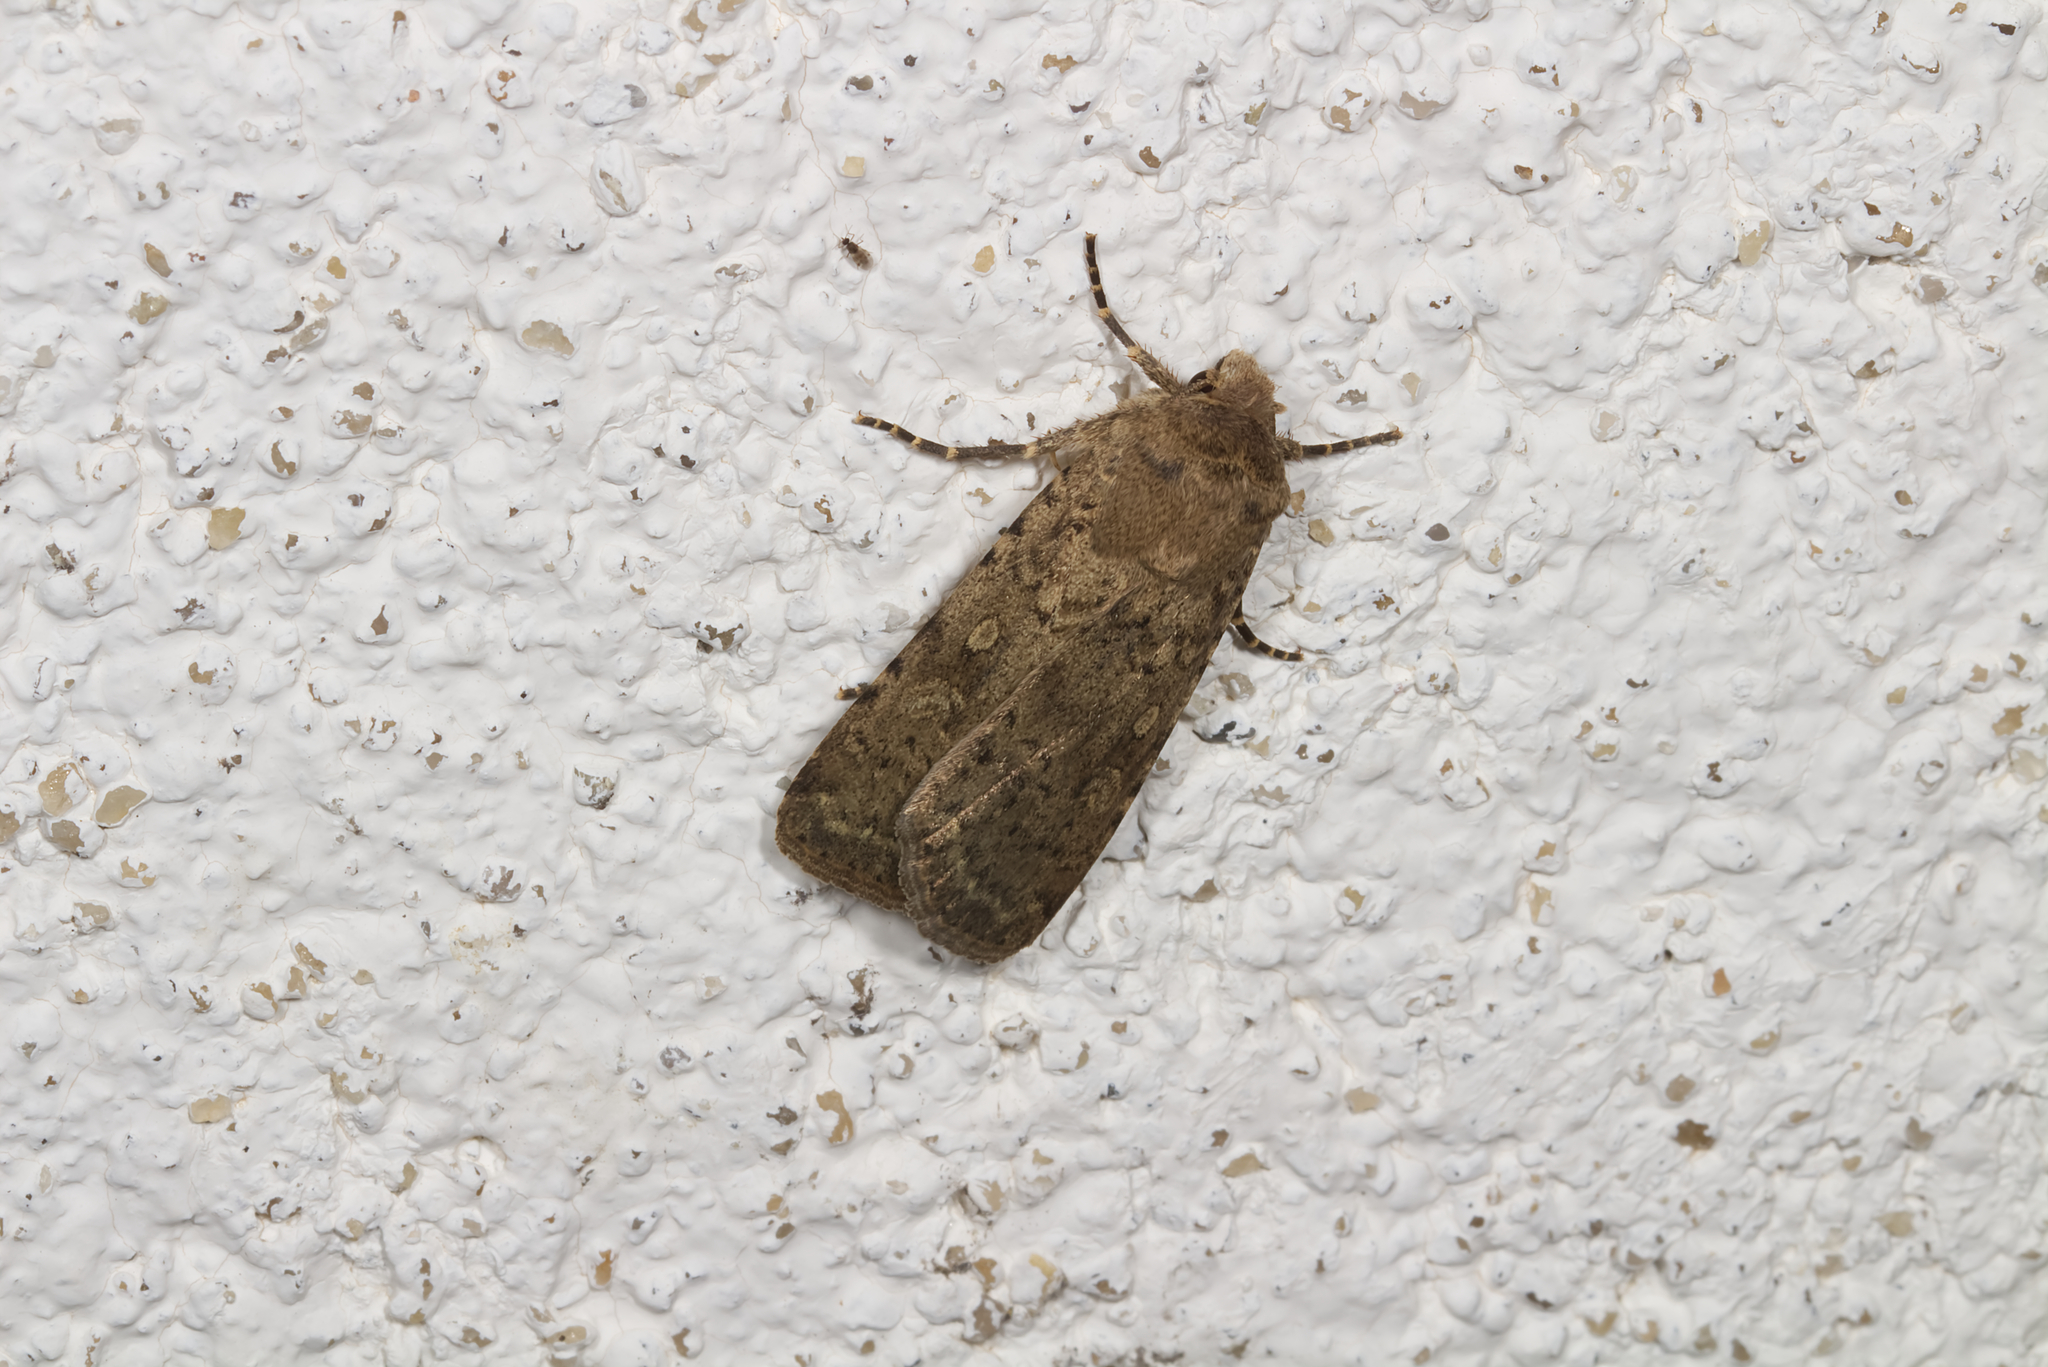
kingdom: Animalia
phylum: Arthropoda
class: Insecta
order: Lepidoptera
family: Noctuidae
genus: Rhyacia
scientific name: Rhyacia simulans
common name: Dotted rustic
